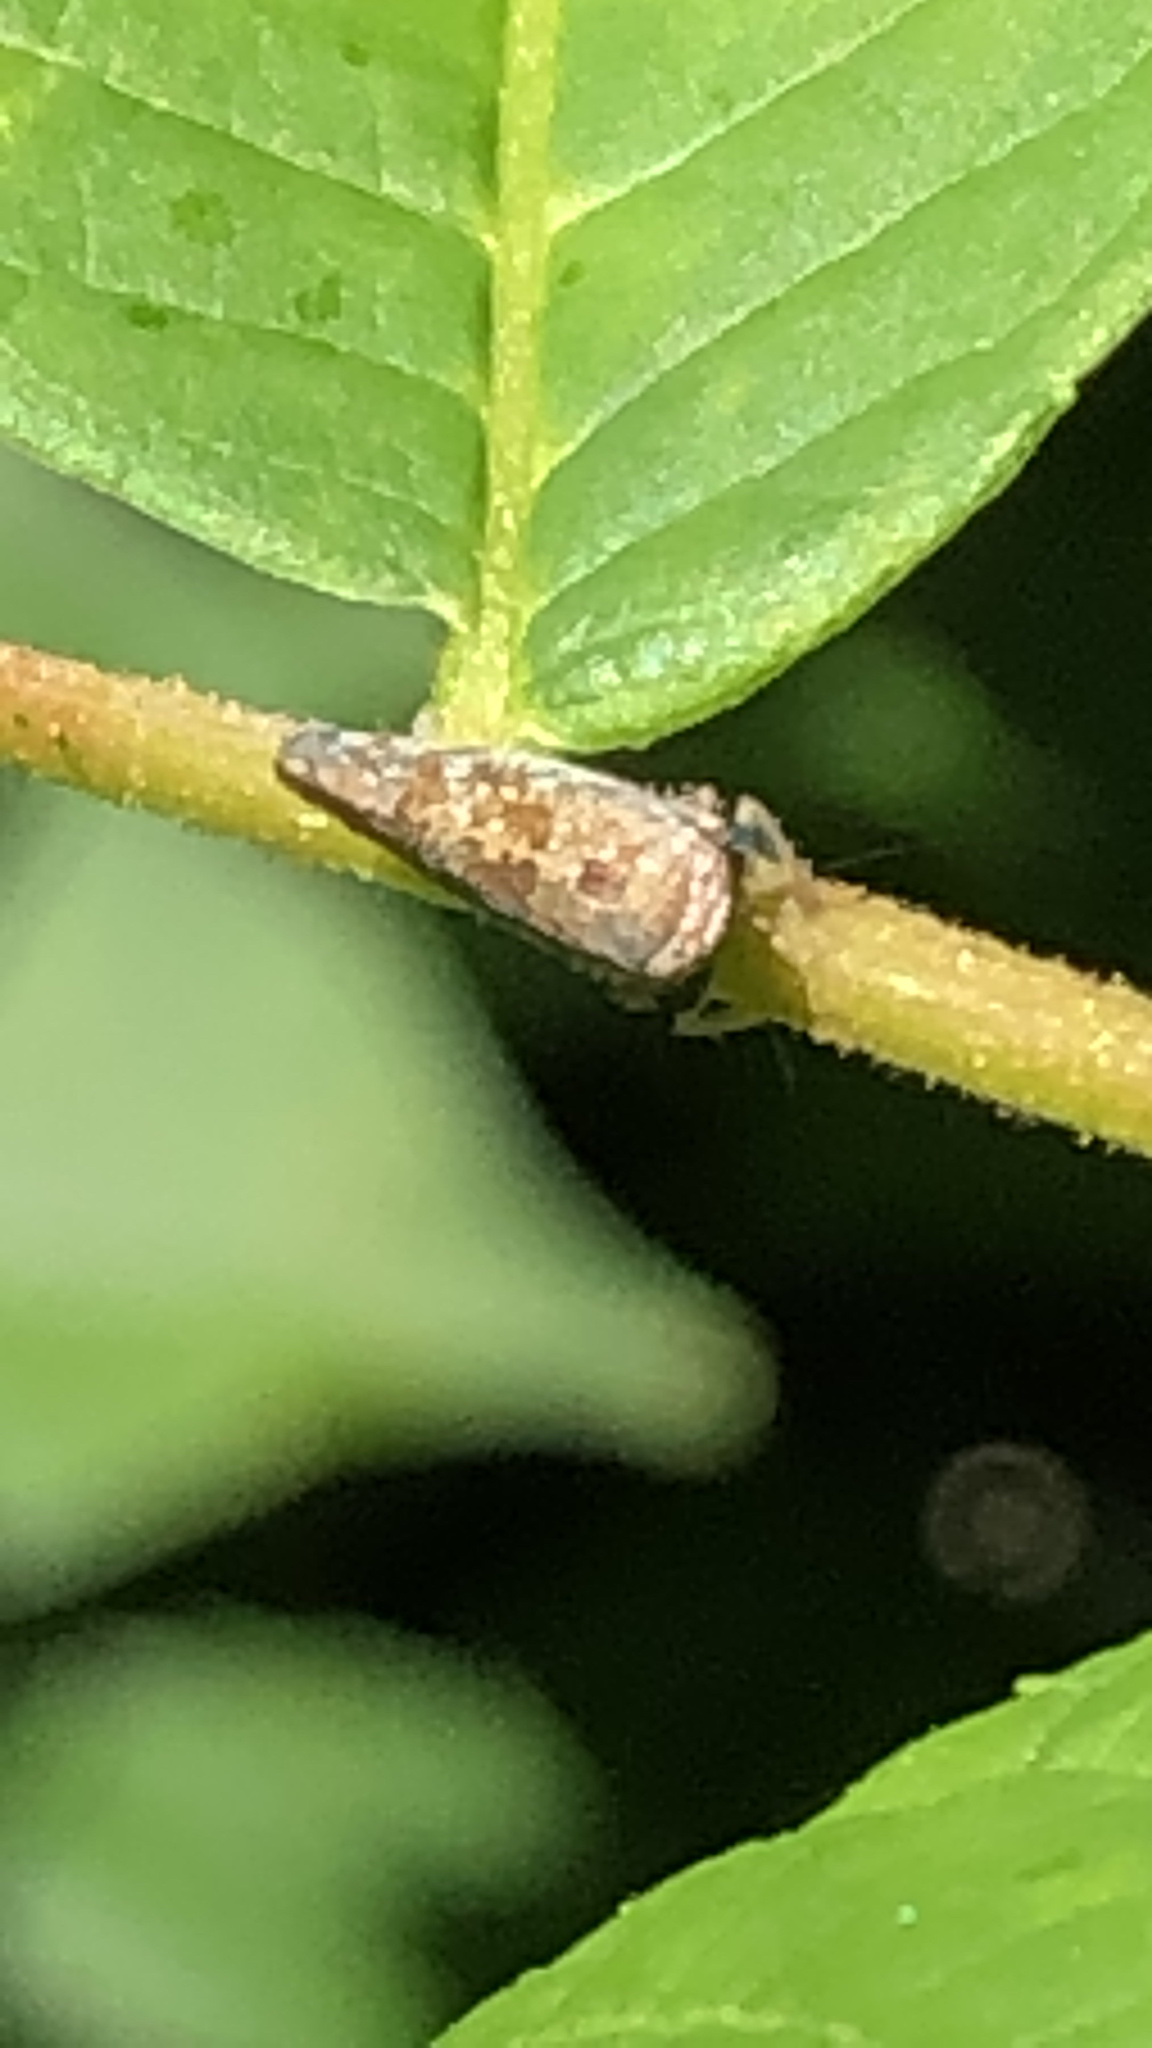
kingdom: Animalia
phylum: Arthropoda
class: Insecta
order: Hemiptera
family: Cicadellidae
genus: Orientus
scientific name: Orientus ishidae
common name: Japanese leafhopper
